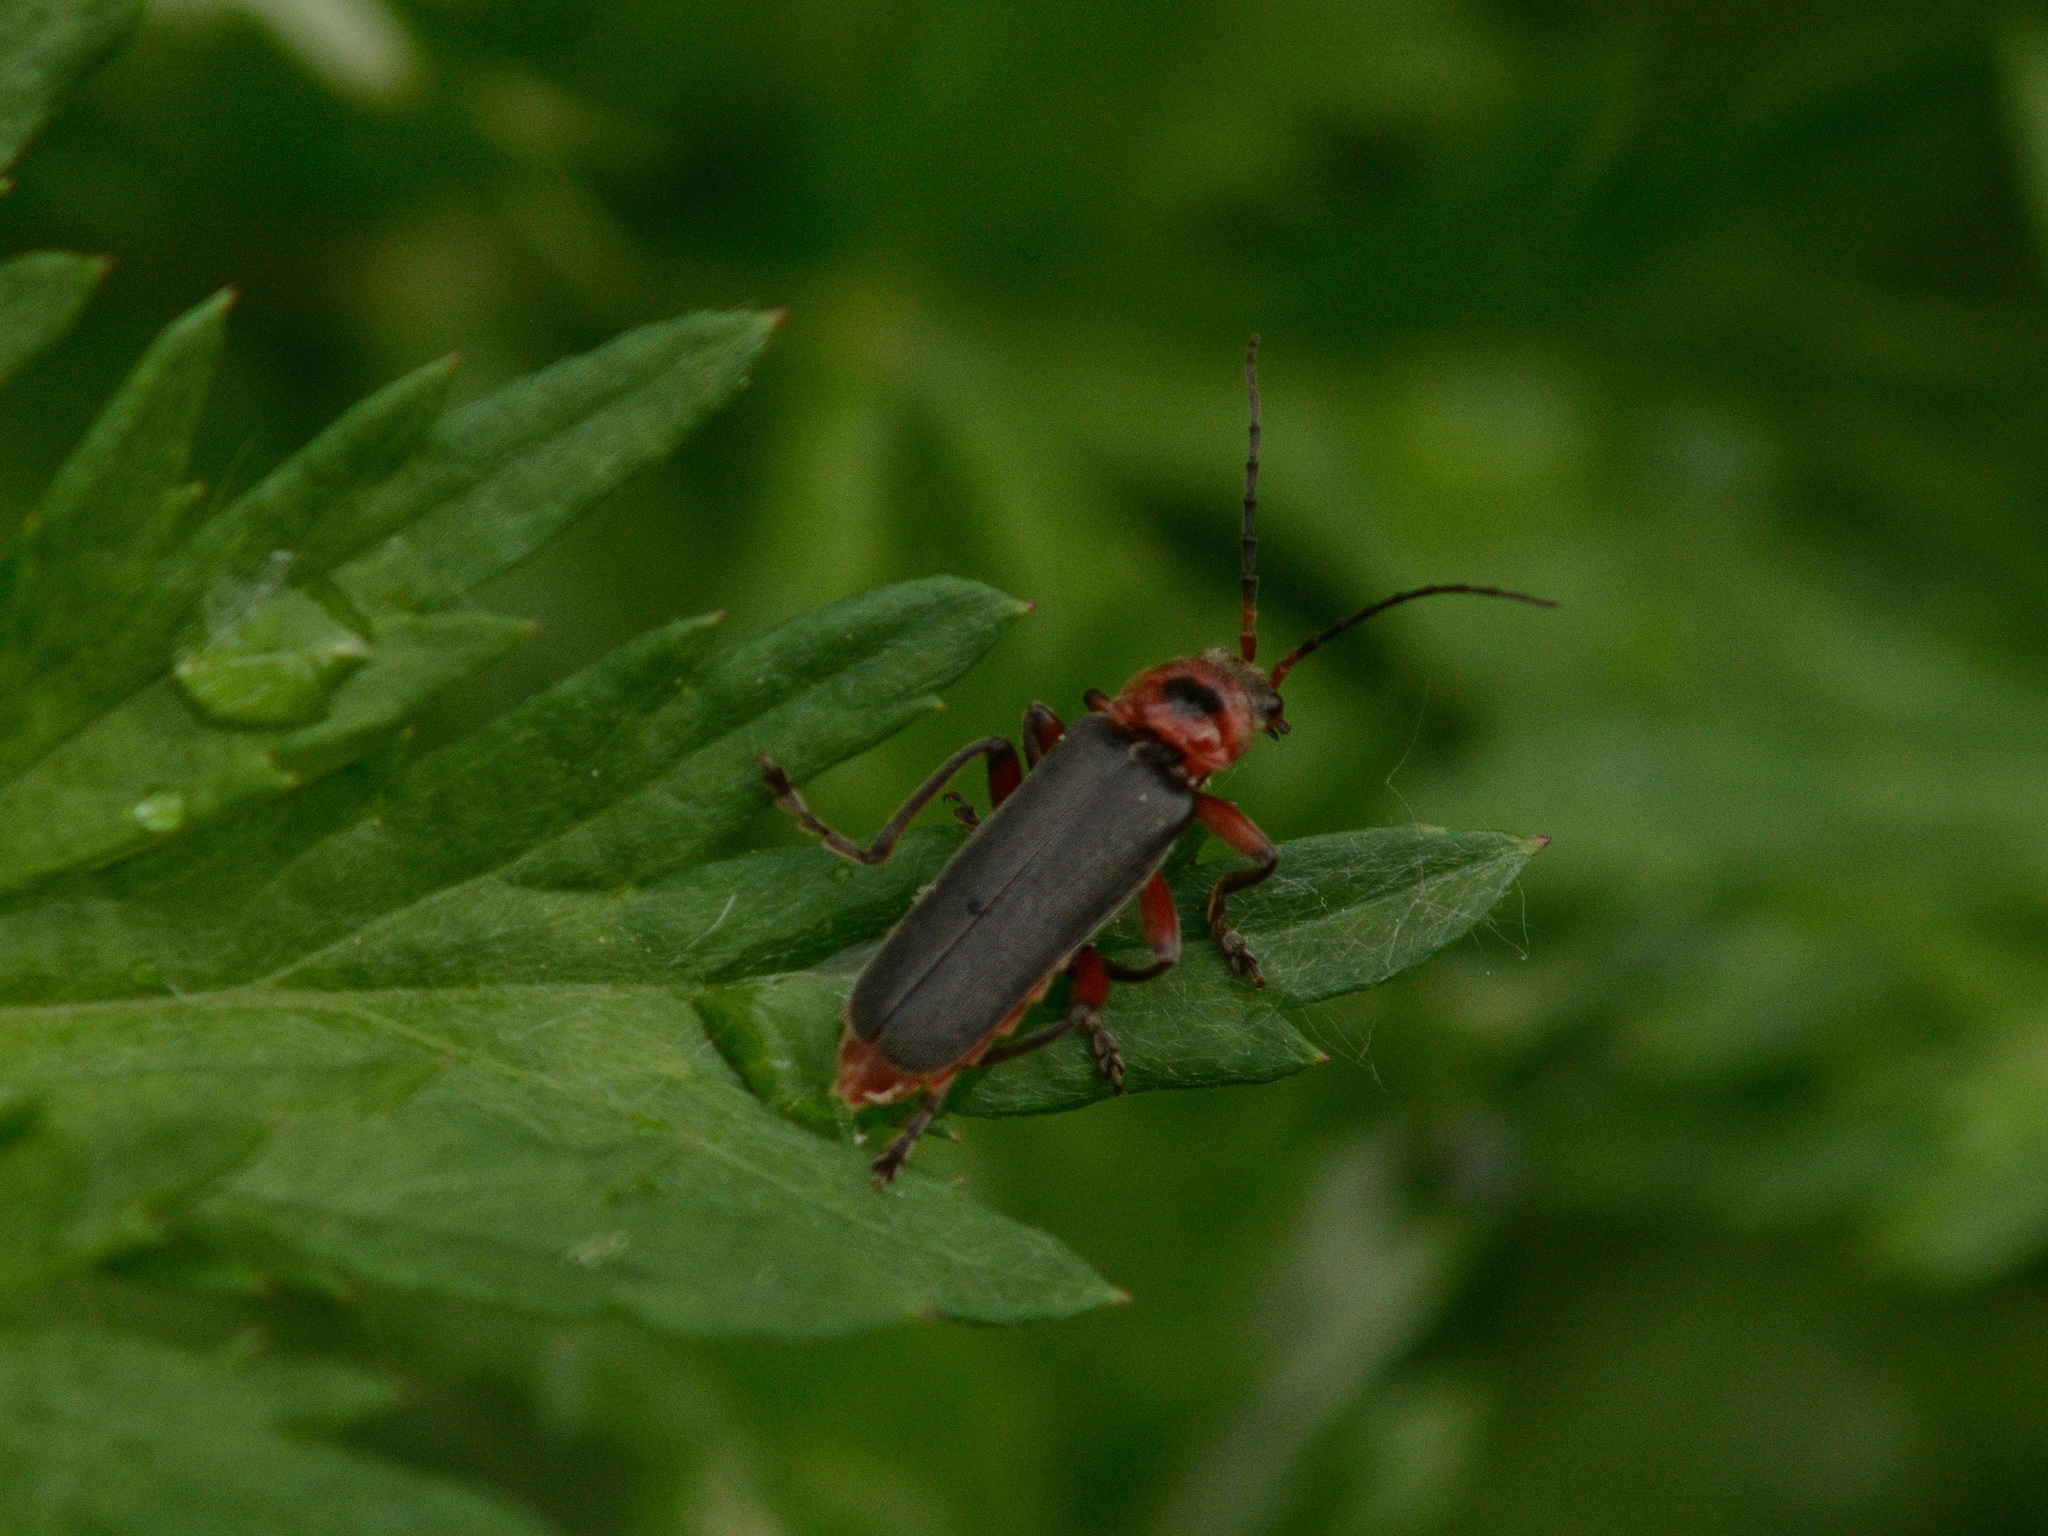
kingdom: Animalia
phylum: Arthropoda
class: Insecta
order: Coleoptera
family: Cantharidae
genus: Cantharis
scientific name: Cantharis rustica
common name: Soldier beetle
